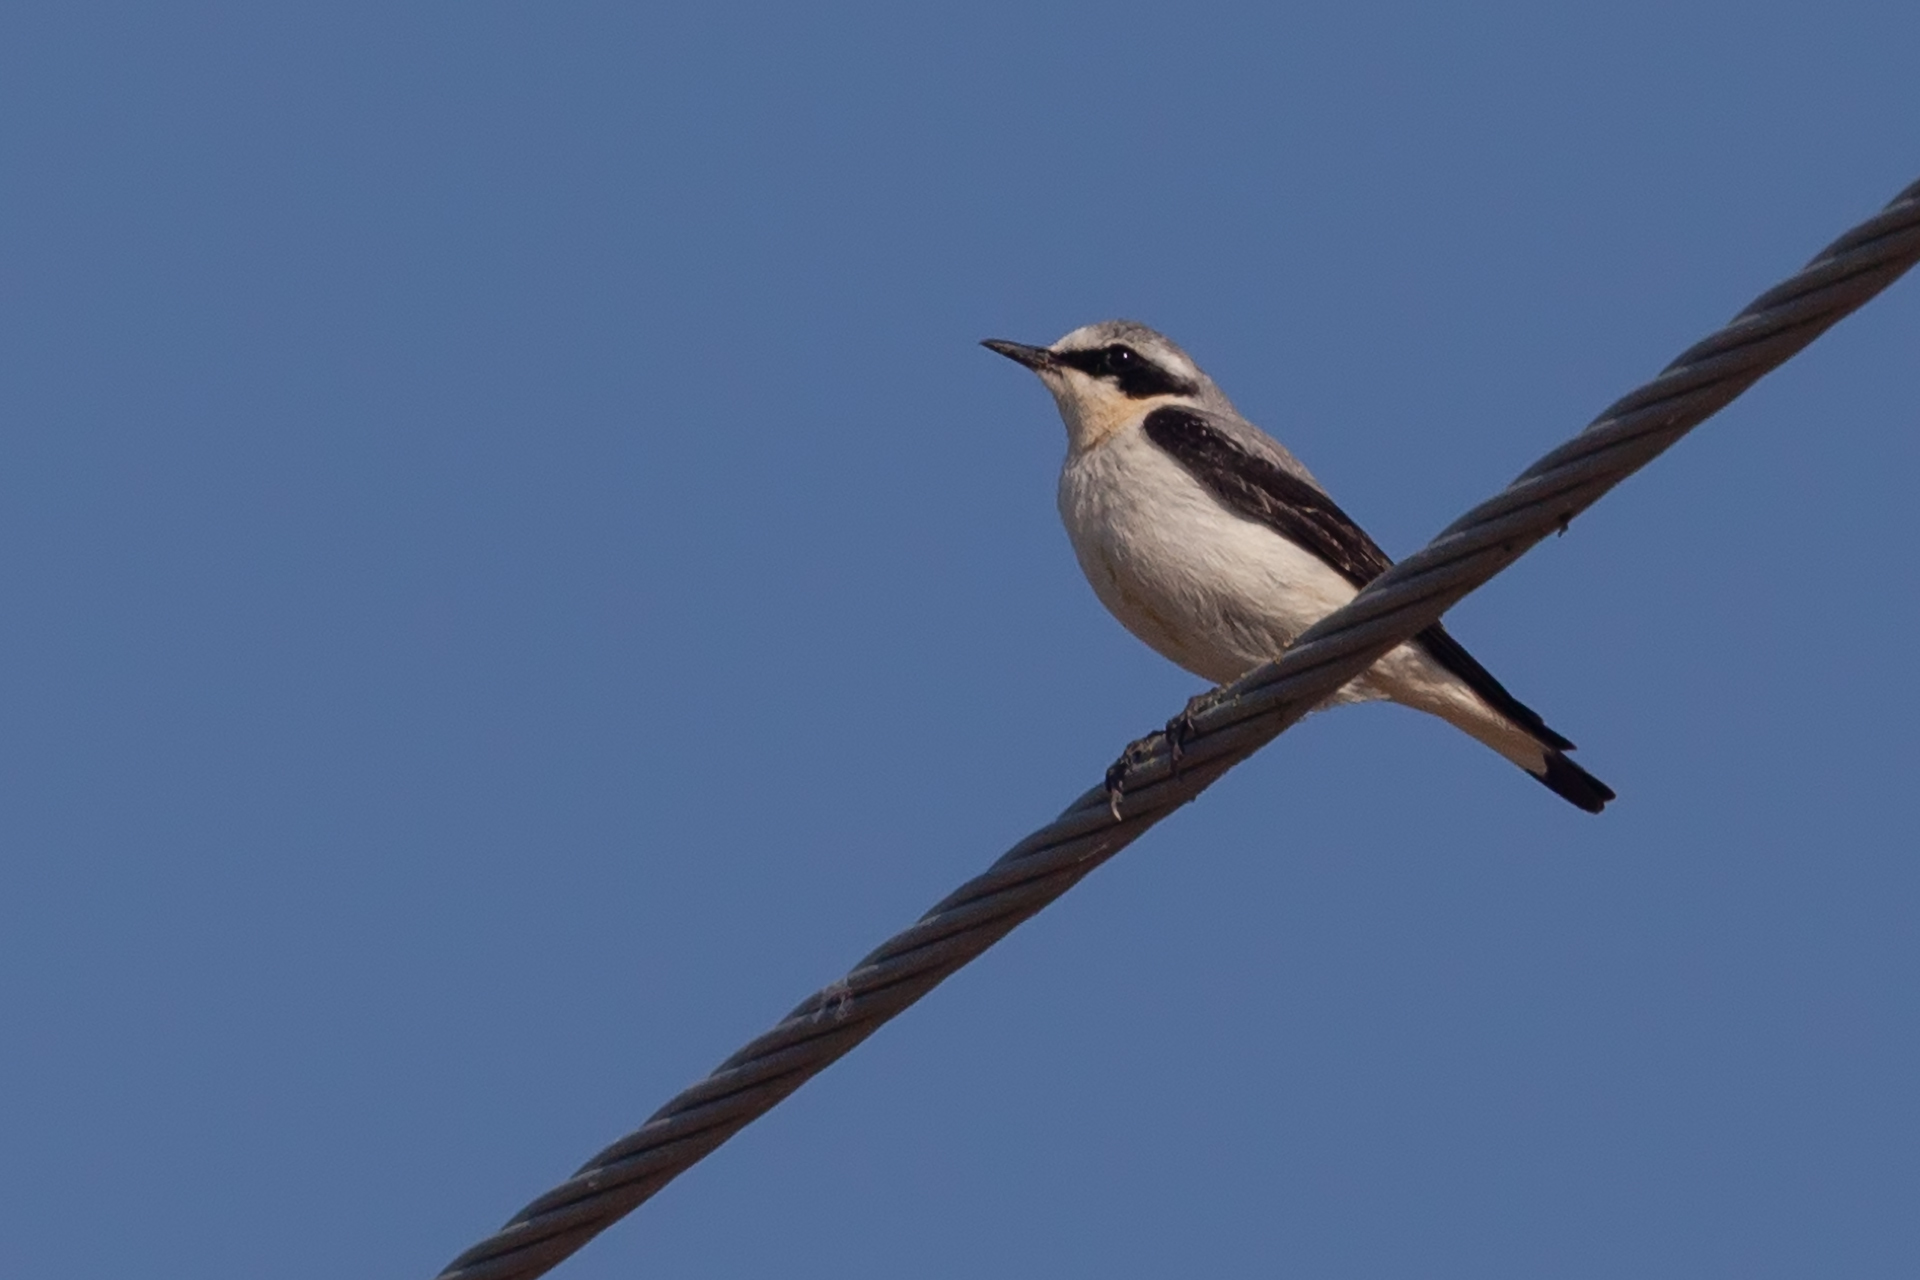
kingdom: Animalia
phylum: Chordata
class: Aves
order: Passeriformes
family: Muscicapidae
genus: Oenanthe
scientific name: Oenanthe oenanthe
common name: Northern wheatear
